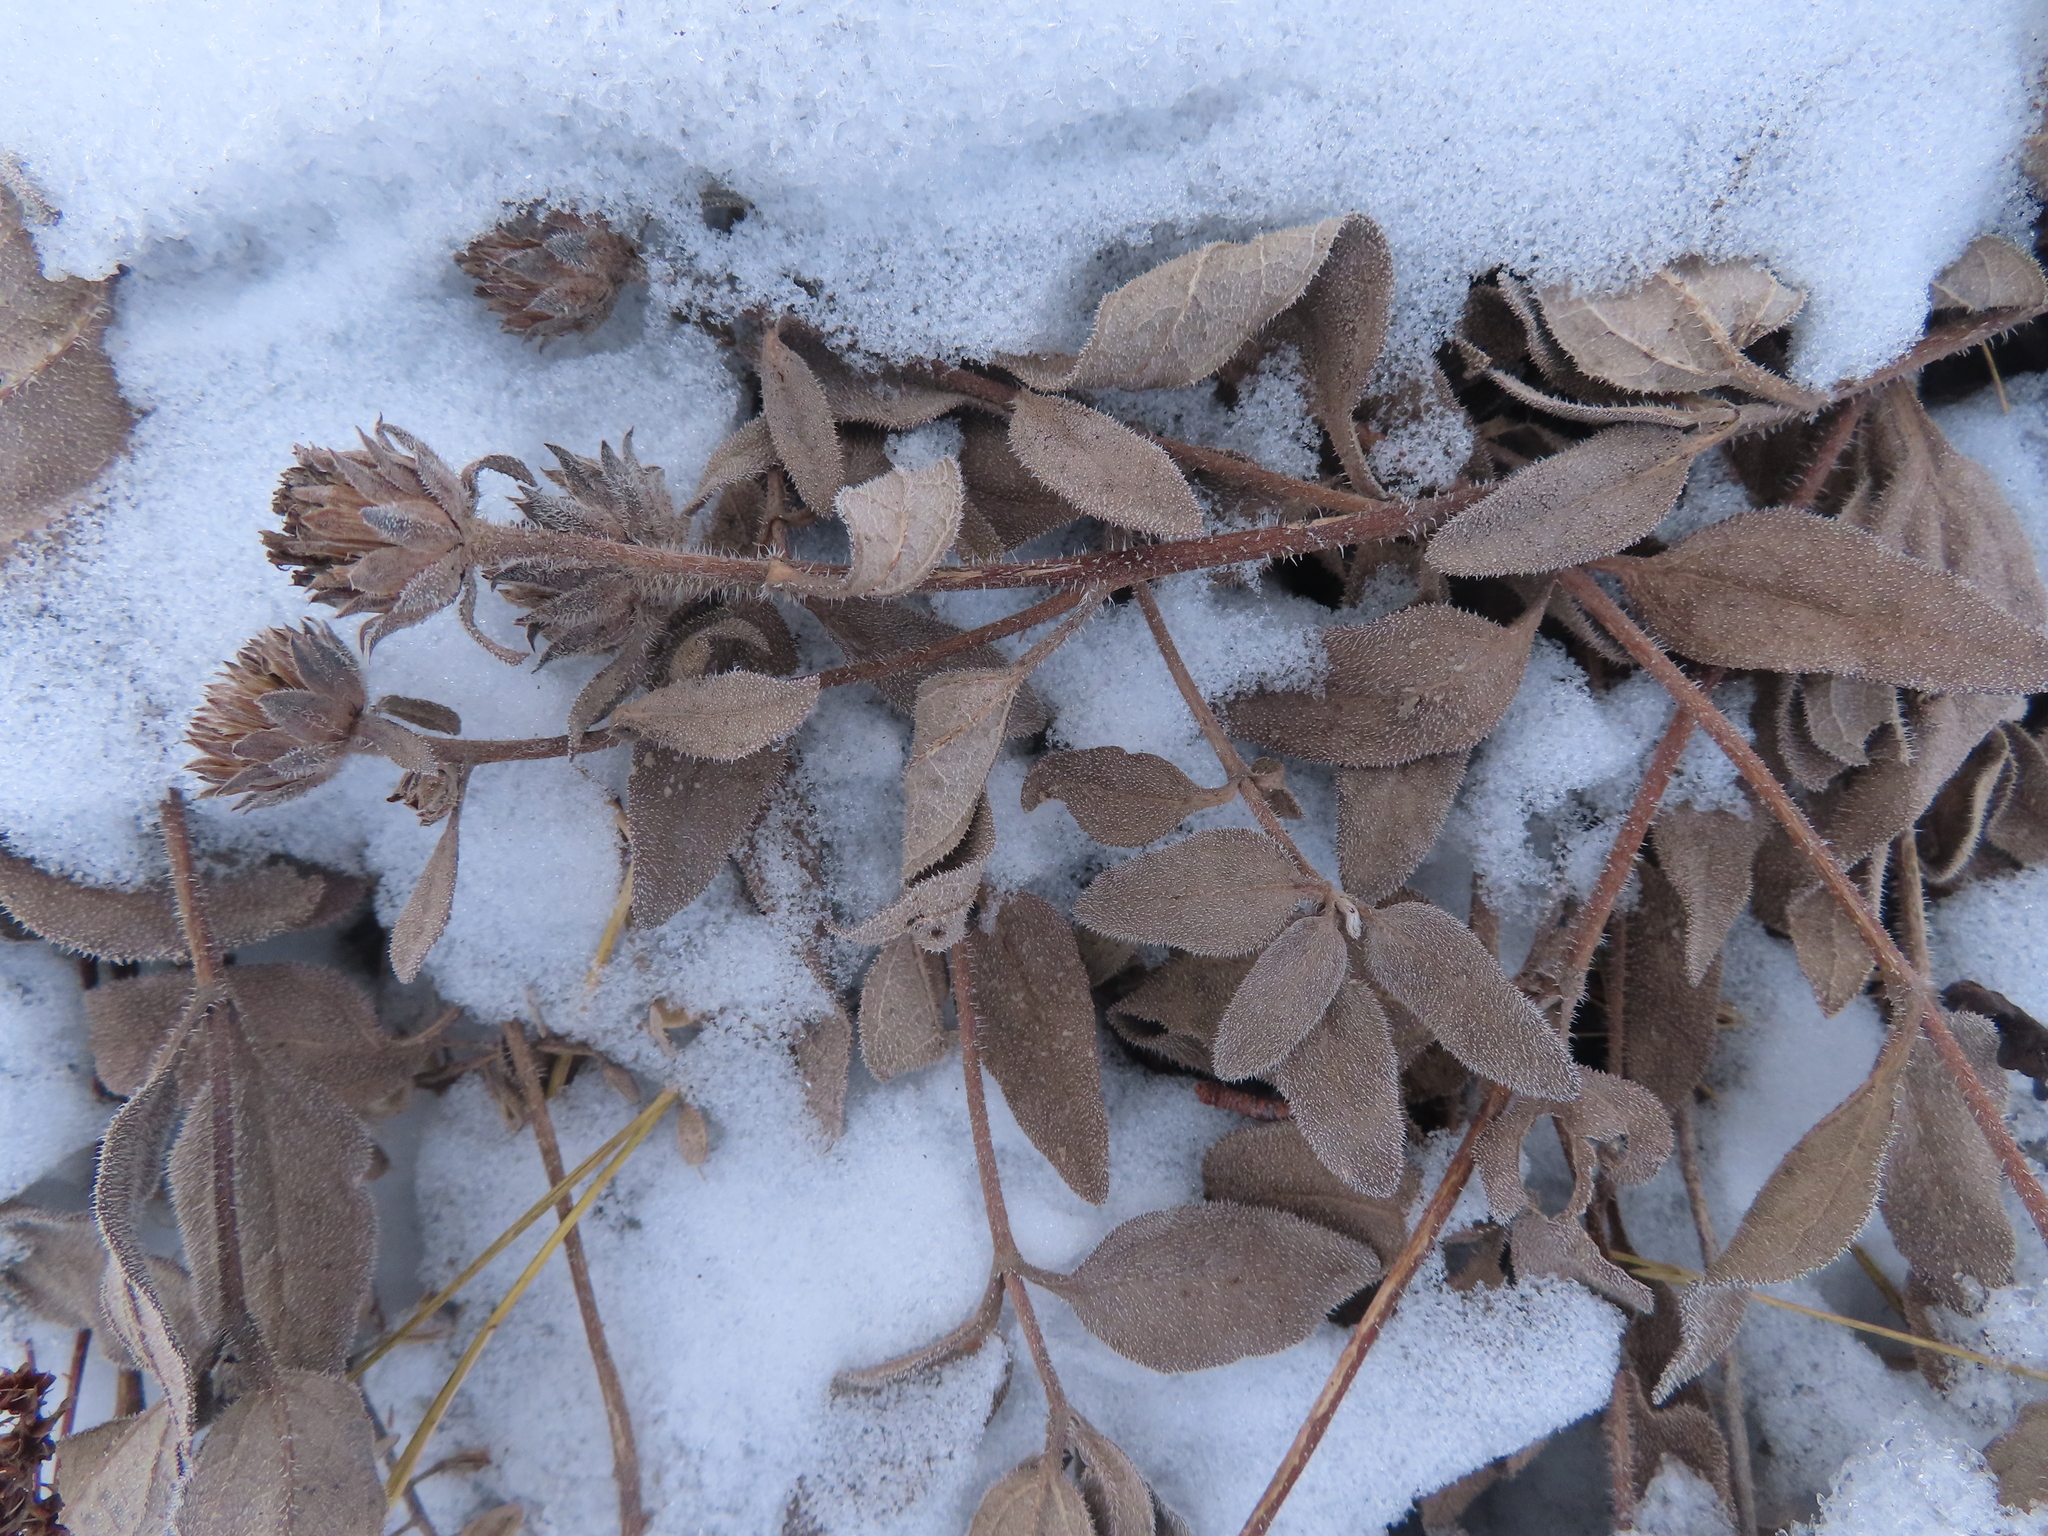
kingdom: Plantae
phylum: Tracheophyta
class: Magnoliopsida
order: Asterales
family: Asteraceae
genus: Helianthus
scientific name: Helianthus pumilus
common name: Dwarf sunflower
